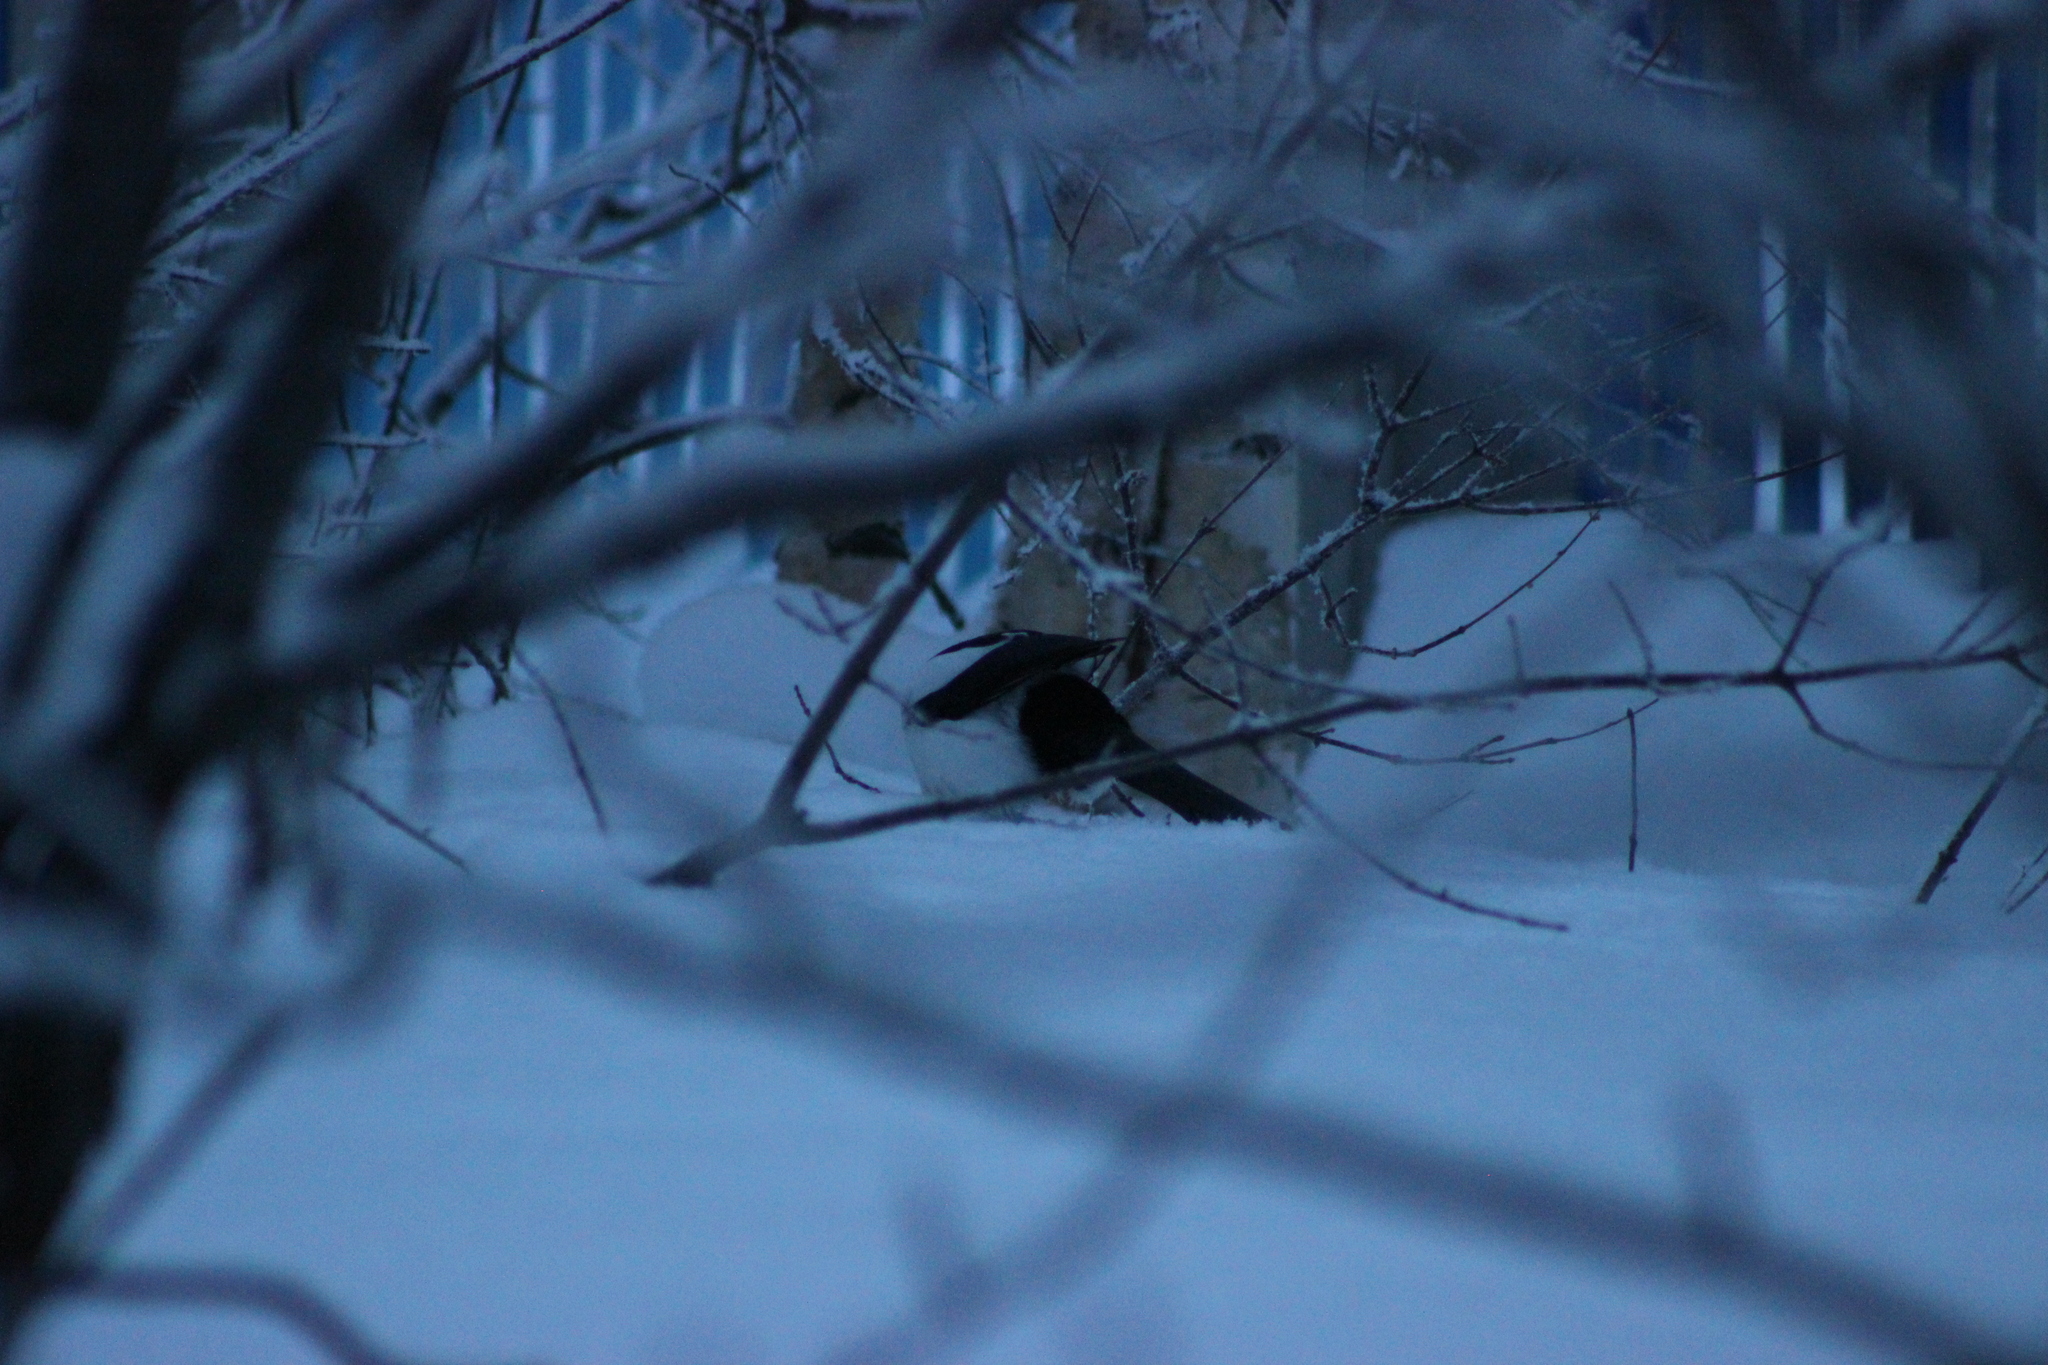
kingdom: Animalia
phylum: Chordata
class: Aves
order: Passeriformes
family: Corvidae
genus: Pica
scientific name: Pica pica
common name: Eurasian magpie
